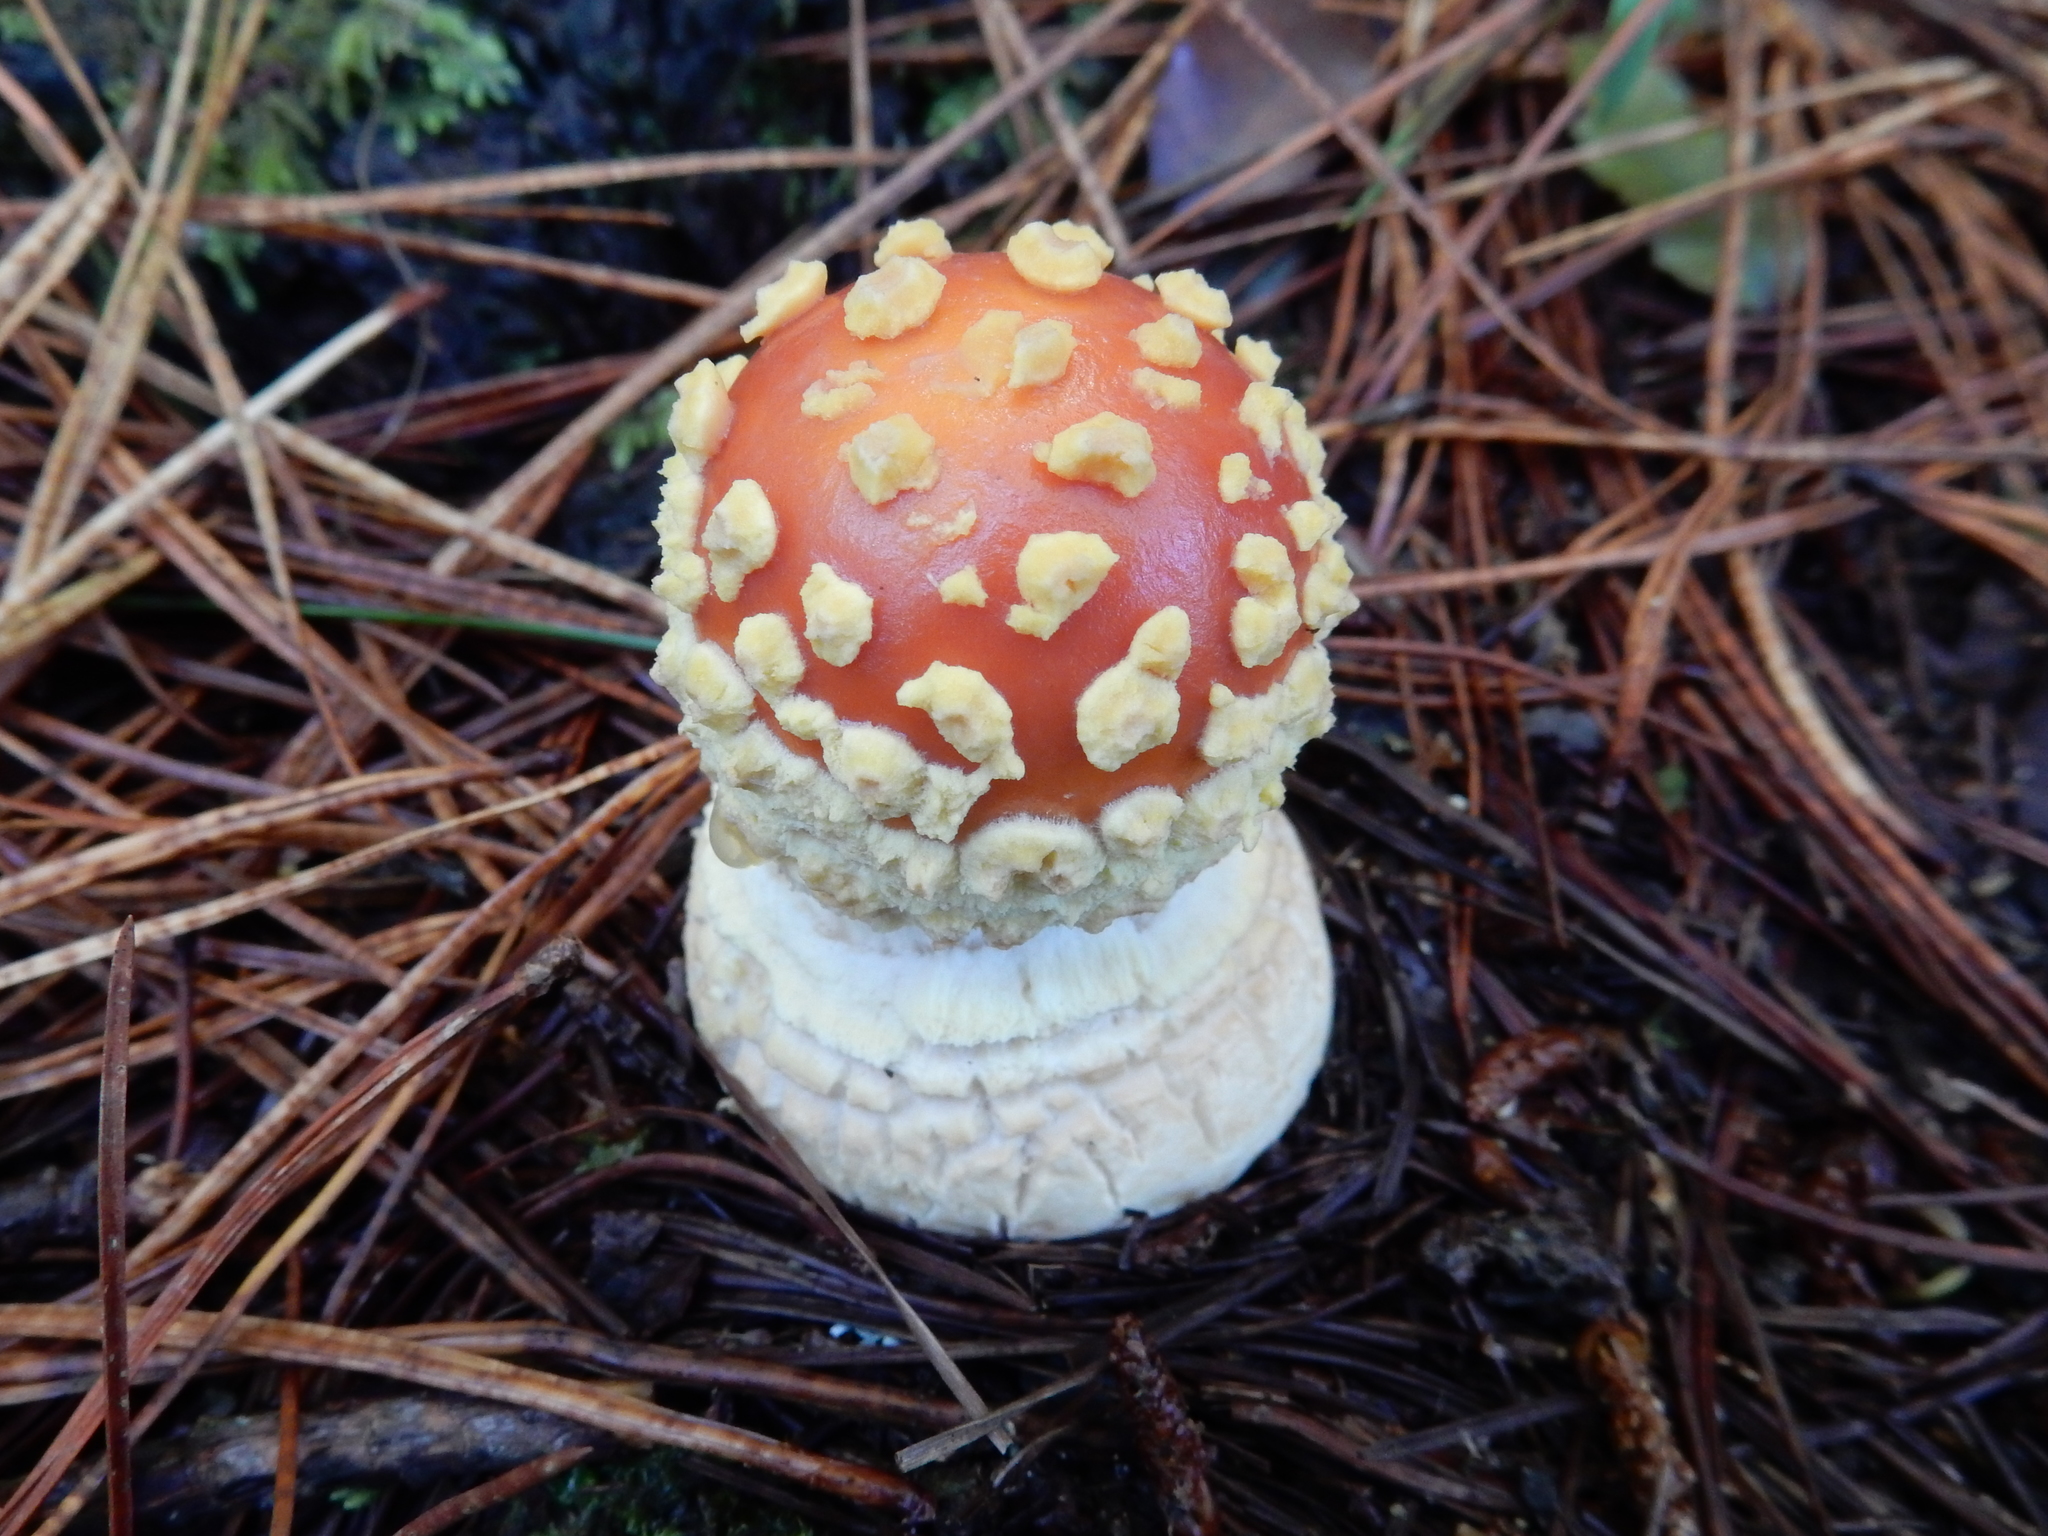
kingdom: Fungi
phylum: Basidiomycota
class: Agaricomycetes
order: Agaricales
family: Amanitaceae
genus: Amanita
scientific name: Amanita muscaria
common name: Fly agaric
